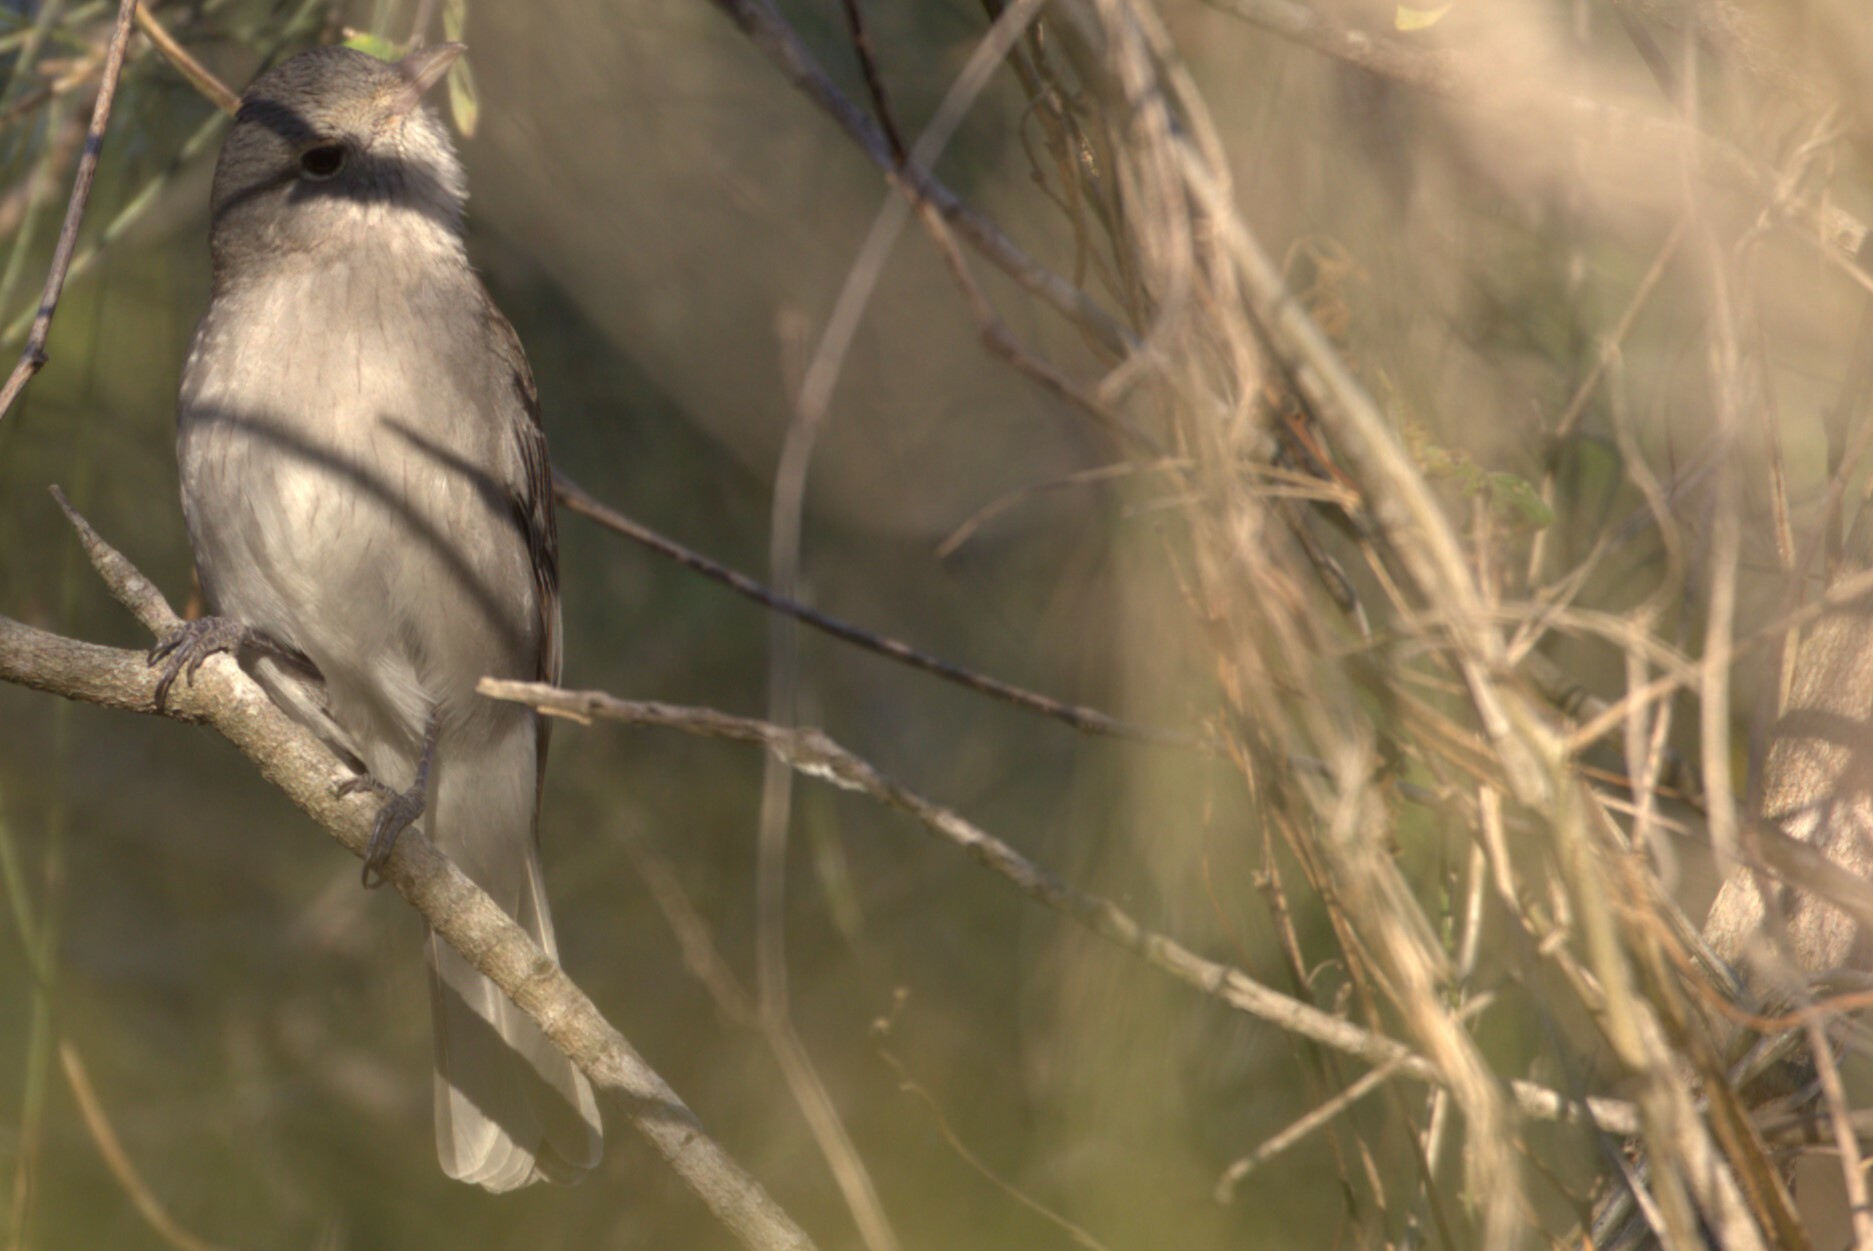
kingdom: Animalia
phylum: Chordata
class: Aves
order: Passeriformes
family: Pachycephalidae
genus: Colluricincla
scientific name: Colluricincla harmonica
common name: Grey shrikethrush
